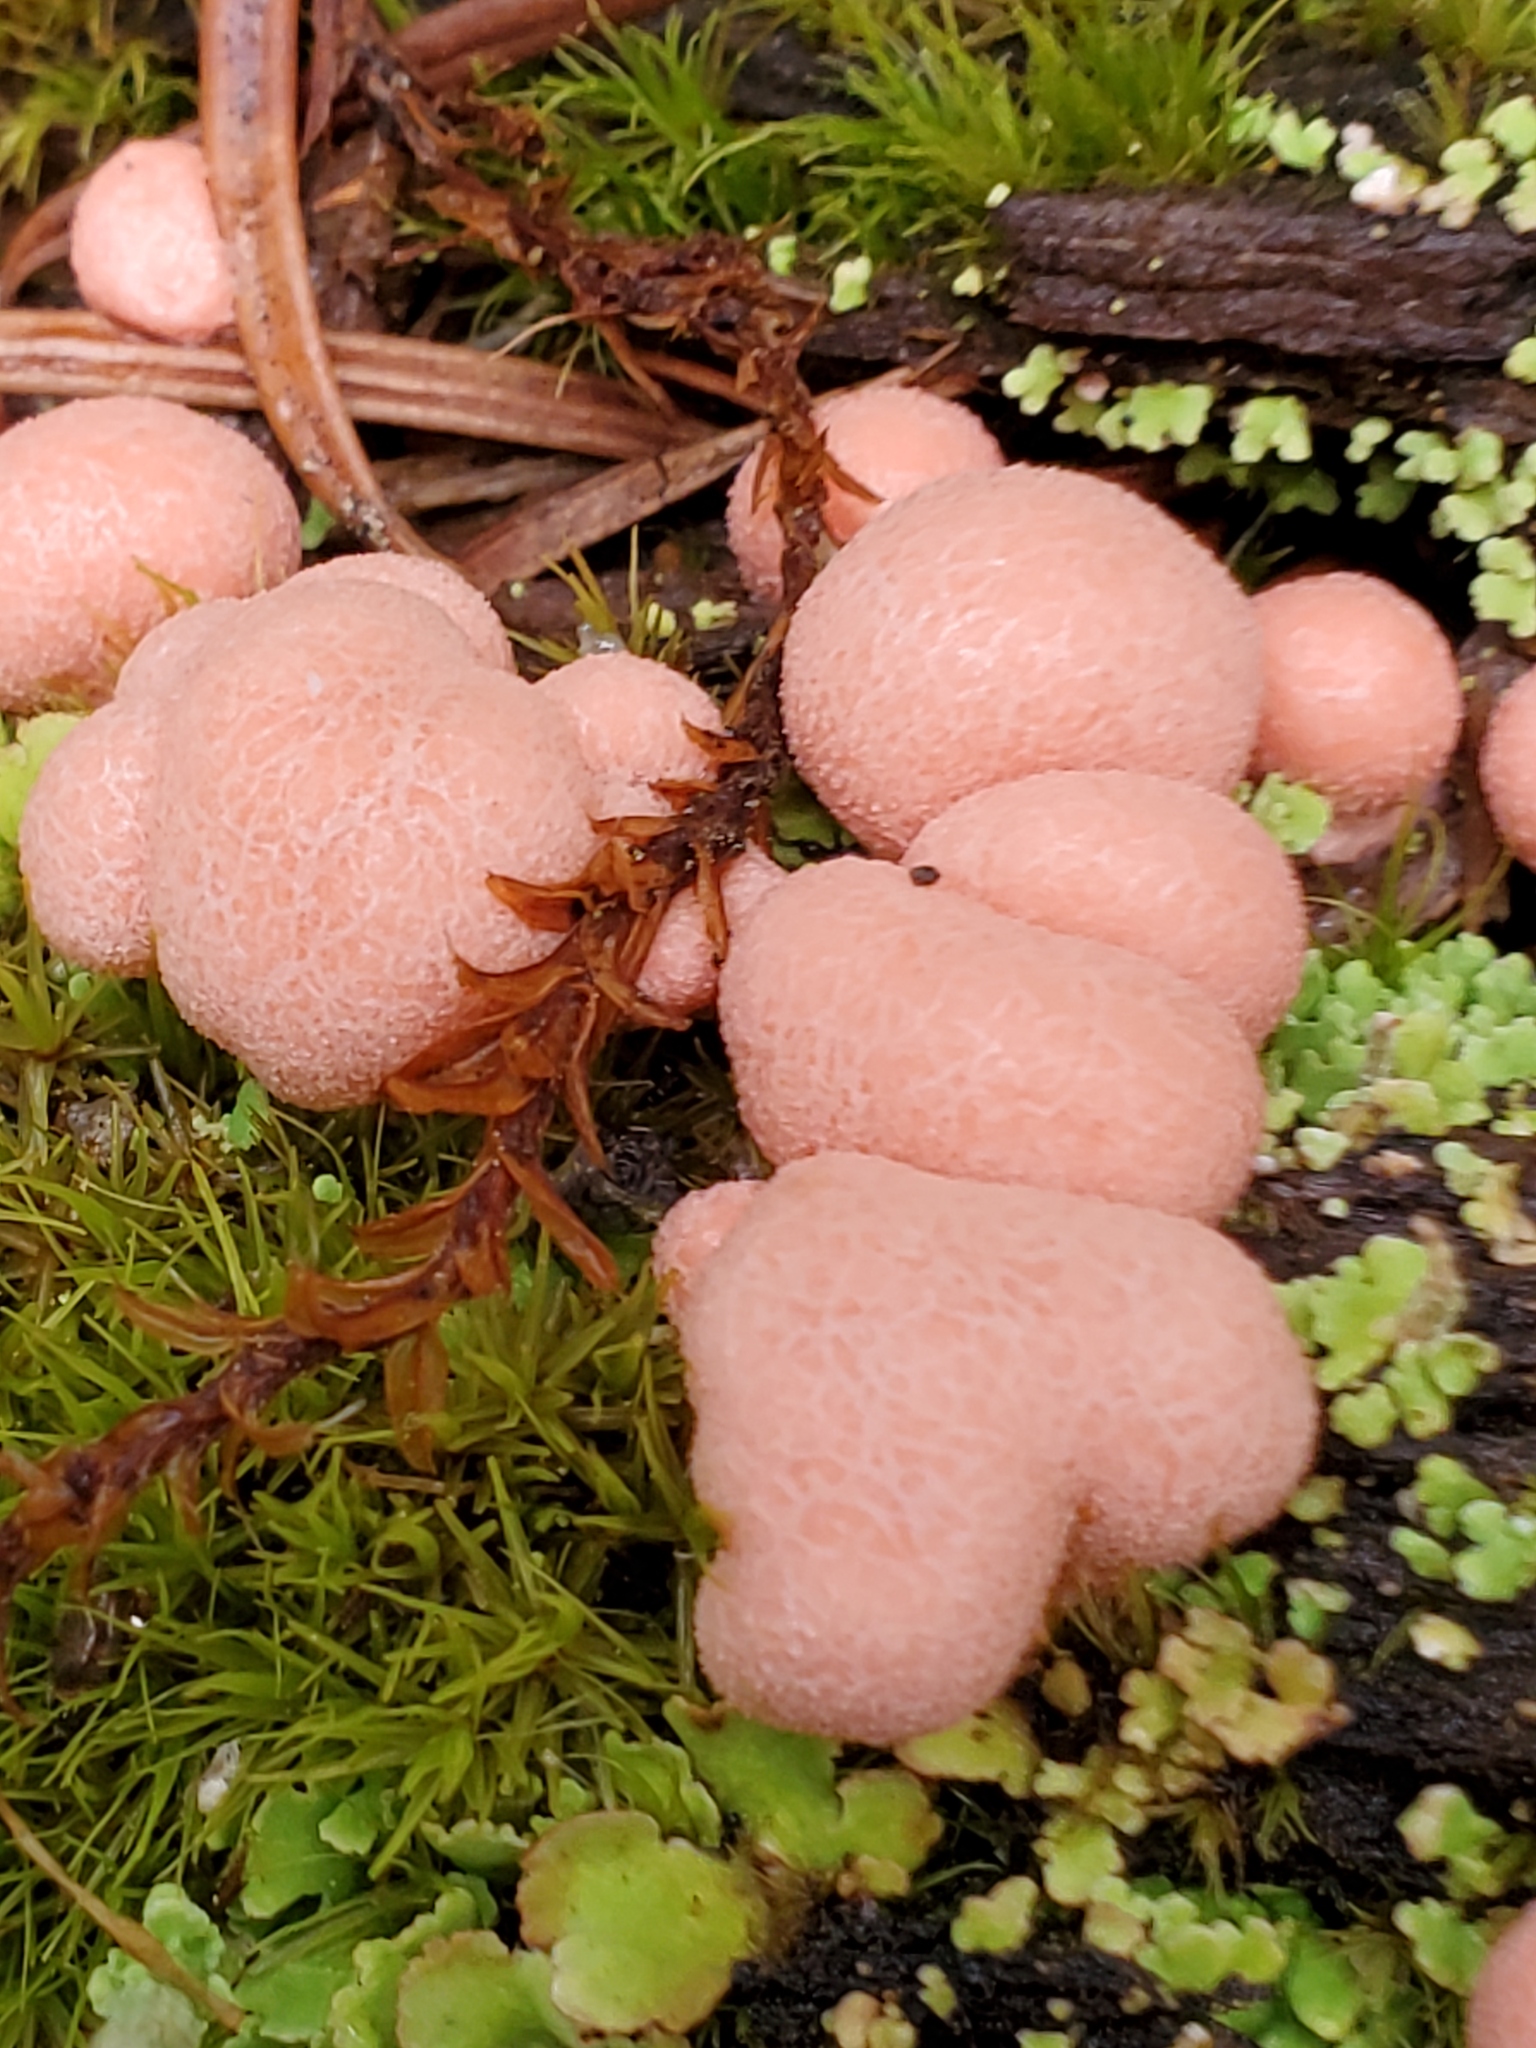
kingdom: Protozoa
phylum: Mycetozoa
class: Myxomycetes
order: Cribrariales
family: Tubiferaceae
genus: Lycogala
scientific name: Lycogala epidendrum
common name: Wolf's milk
